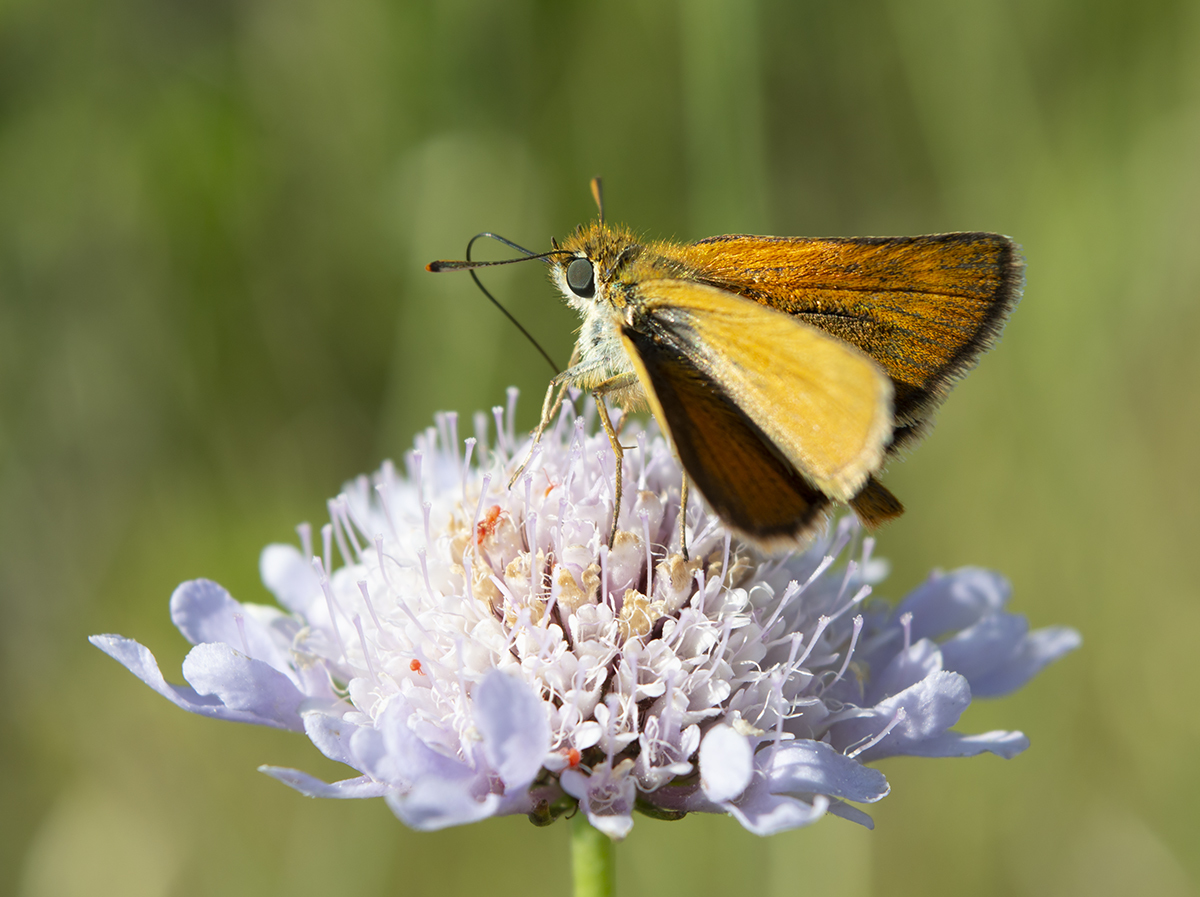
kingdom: Animalia
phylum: Arthropoda
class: Insecta
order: Lepidoptera
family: Hesperiidae
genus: Thymelicus
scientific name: Thymelicus acteon
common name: Lulworth skipper
